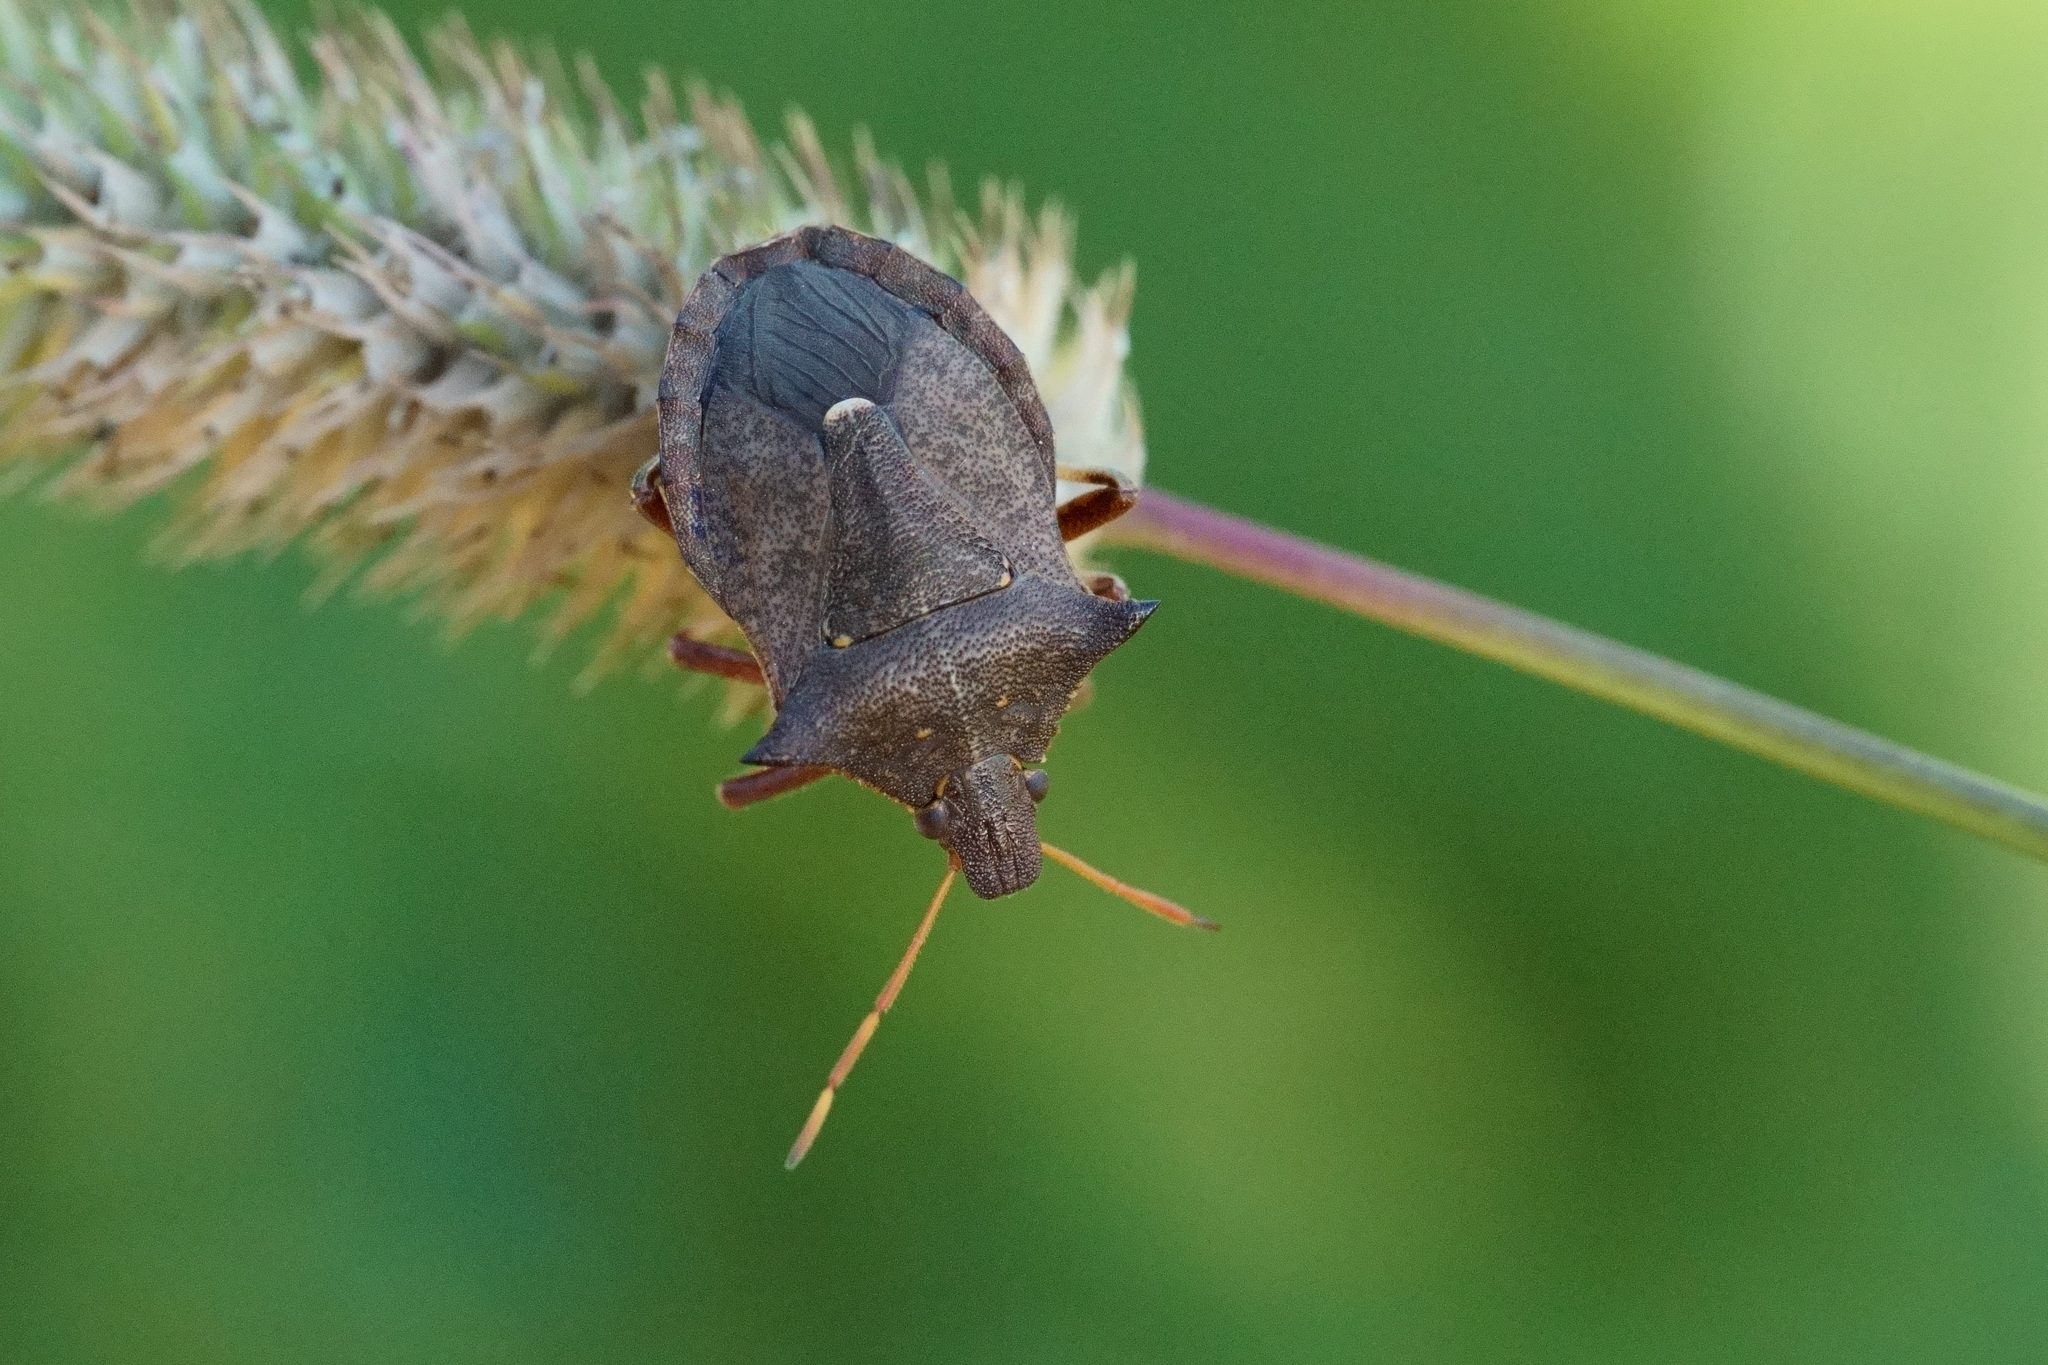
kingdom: Animalia
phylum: Arthropoda
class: Insecta
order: Hemiptera
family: Pentatomidae
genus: Picromerus
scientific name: Picromerus bidens
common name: Spiked shieldbug
